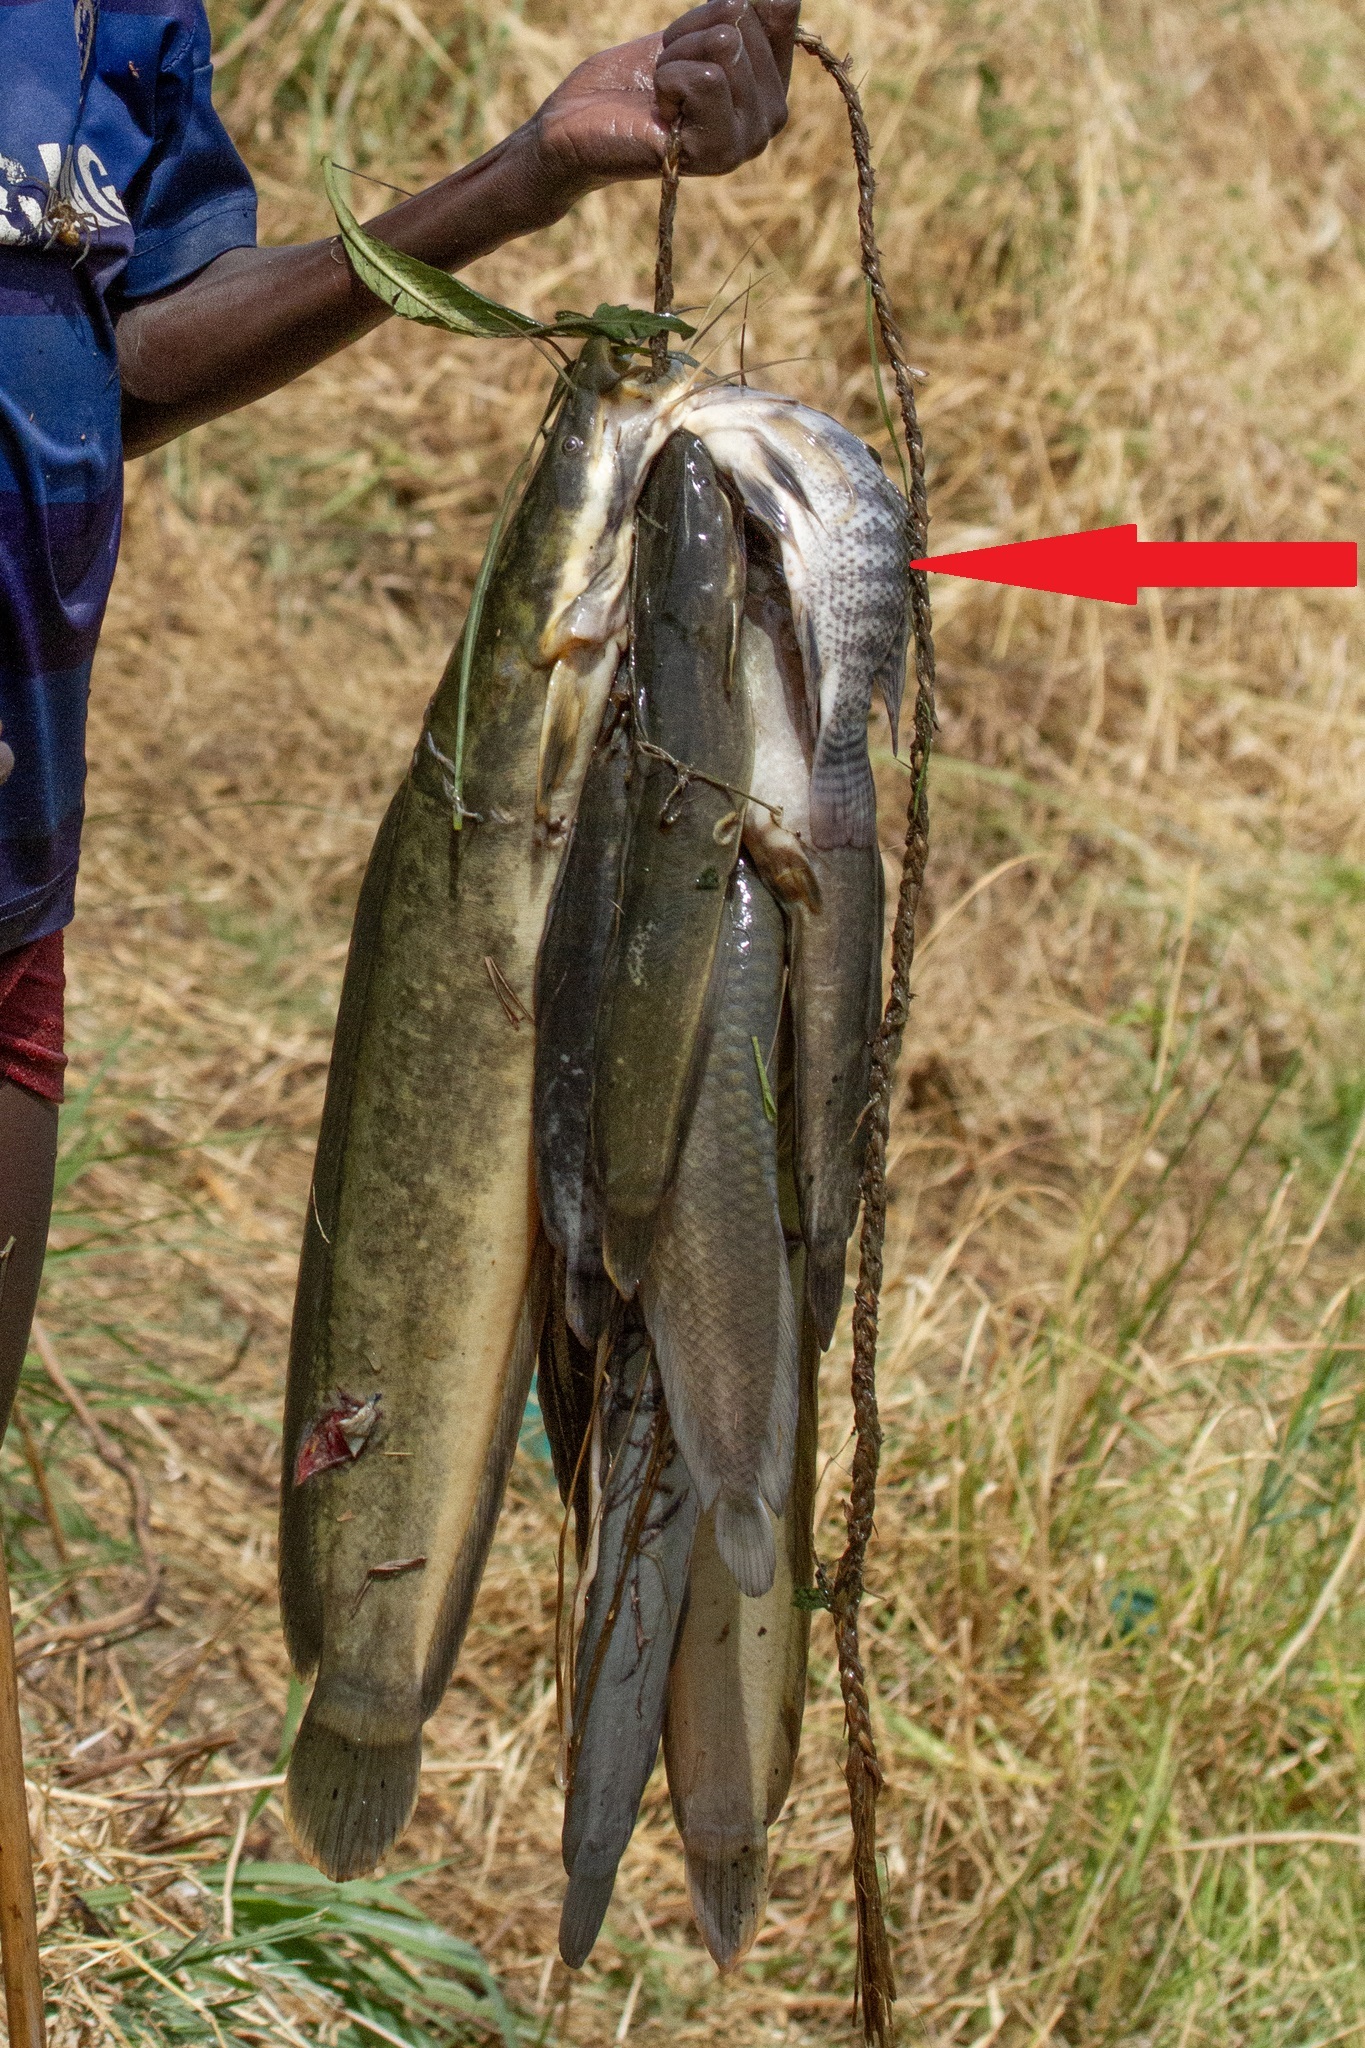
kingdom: Animalia
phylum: Chordata
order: Perciformes
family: Cichlidae
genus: Oreochromis
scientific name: Oreochromis niloticus
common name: Nile tilapia
